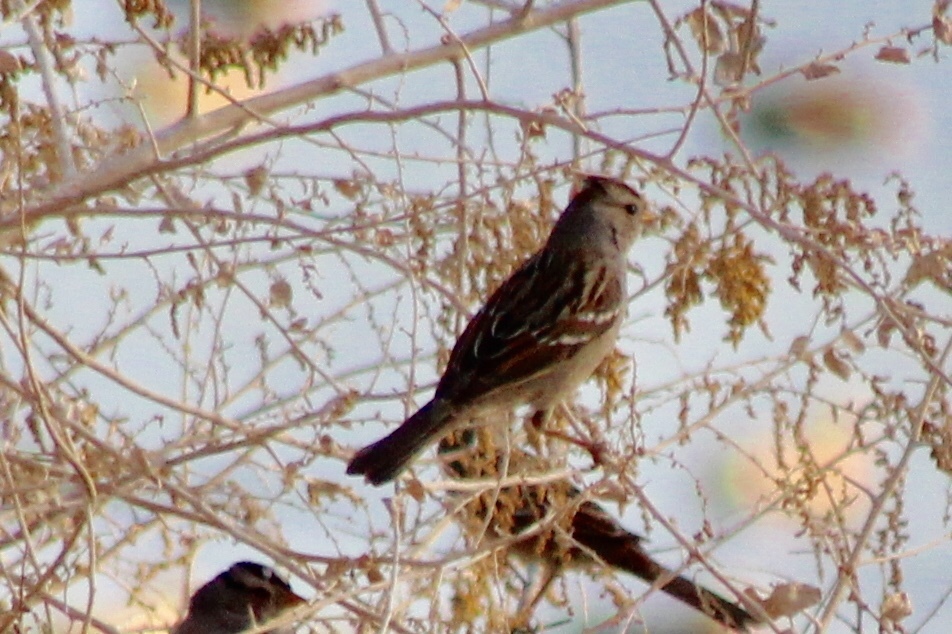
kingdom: Animalia
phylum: Chordata
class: Aves
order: Passeriformes
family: Passerellidae
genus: Zonotrichia
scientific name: Zonotrichia leucophrys
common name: White-crowned sparrow
